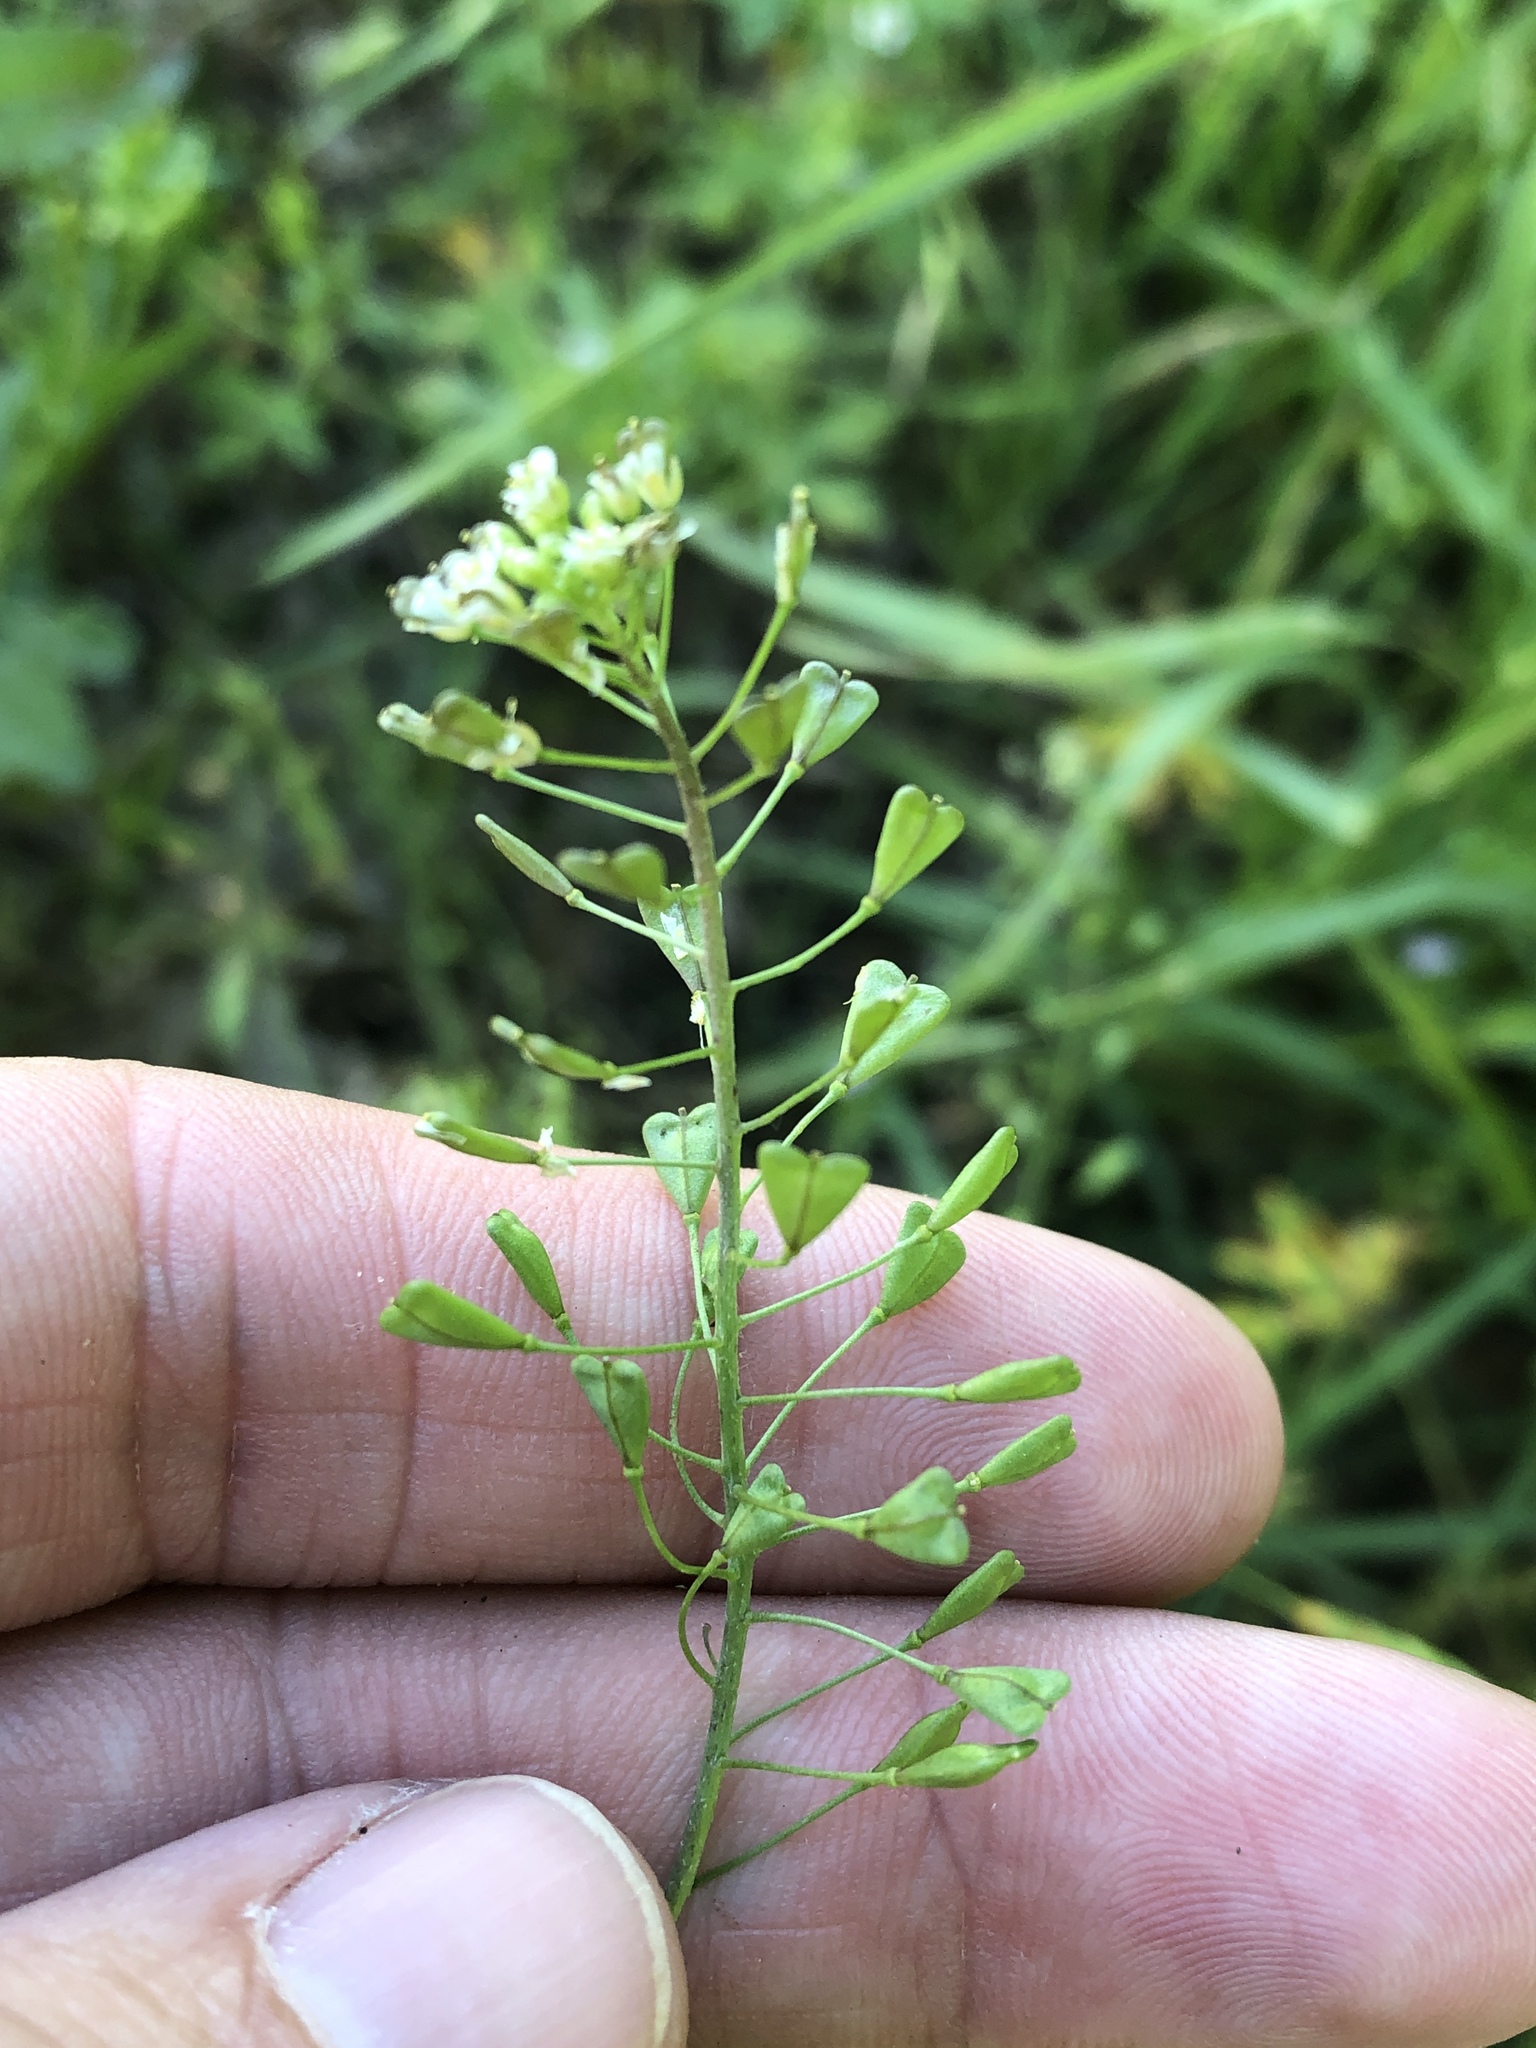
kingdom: Plantae
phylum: Tracheophyta
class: Magnoliopsida
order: Brassicales
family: Brassicaceae
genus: Capsella
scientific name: Capsella bursa-pastoris
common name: Shepherd's purse
